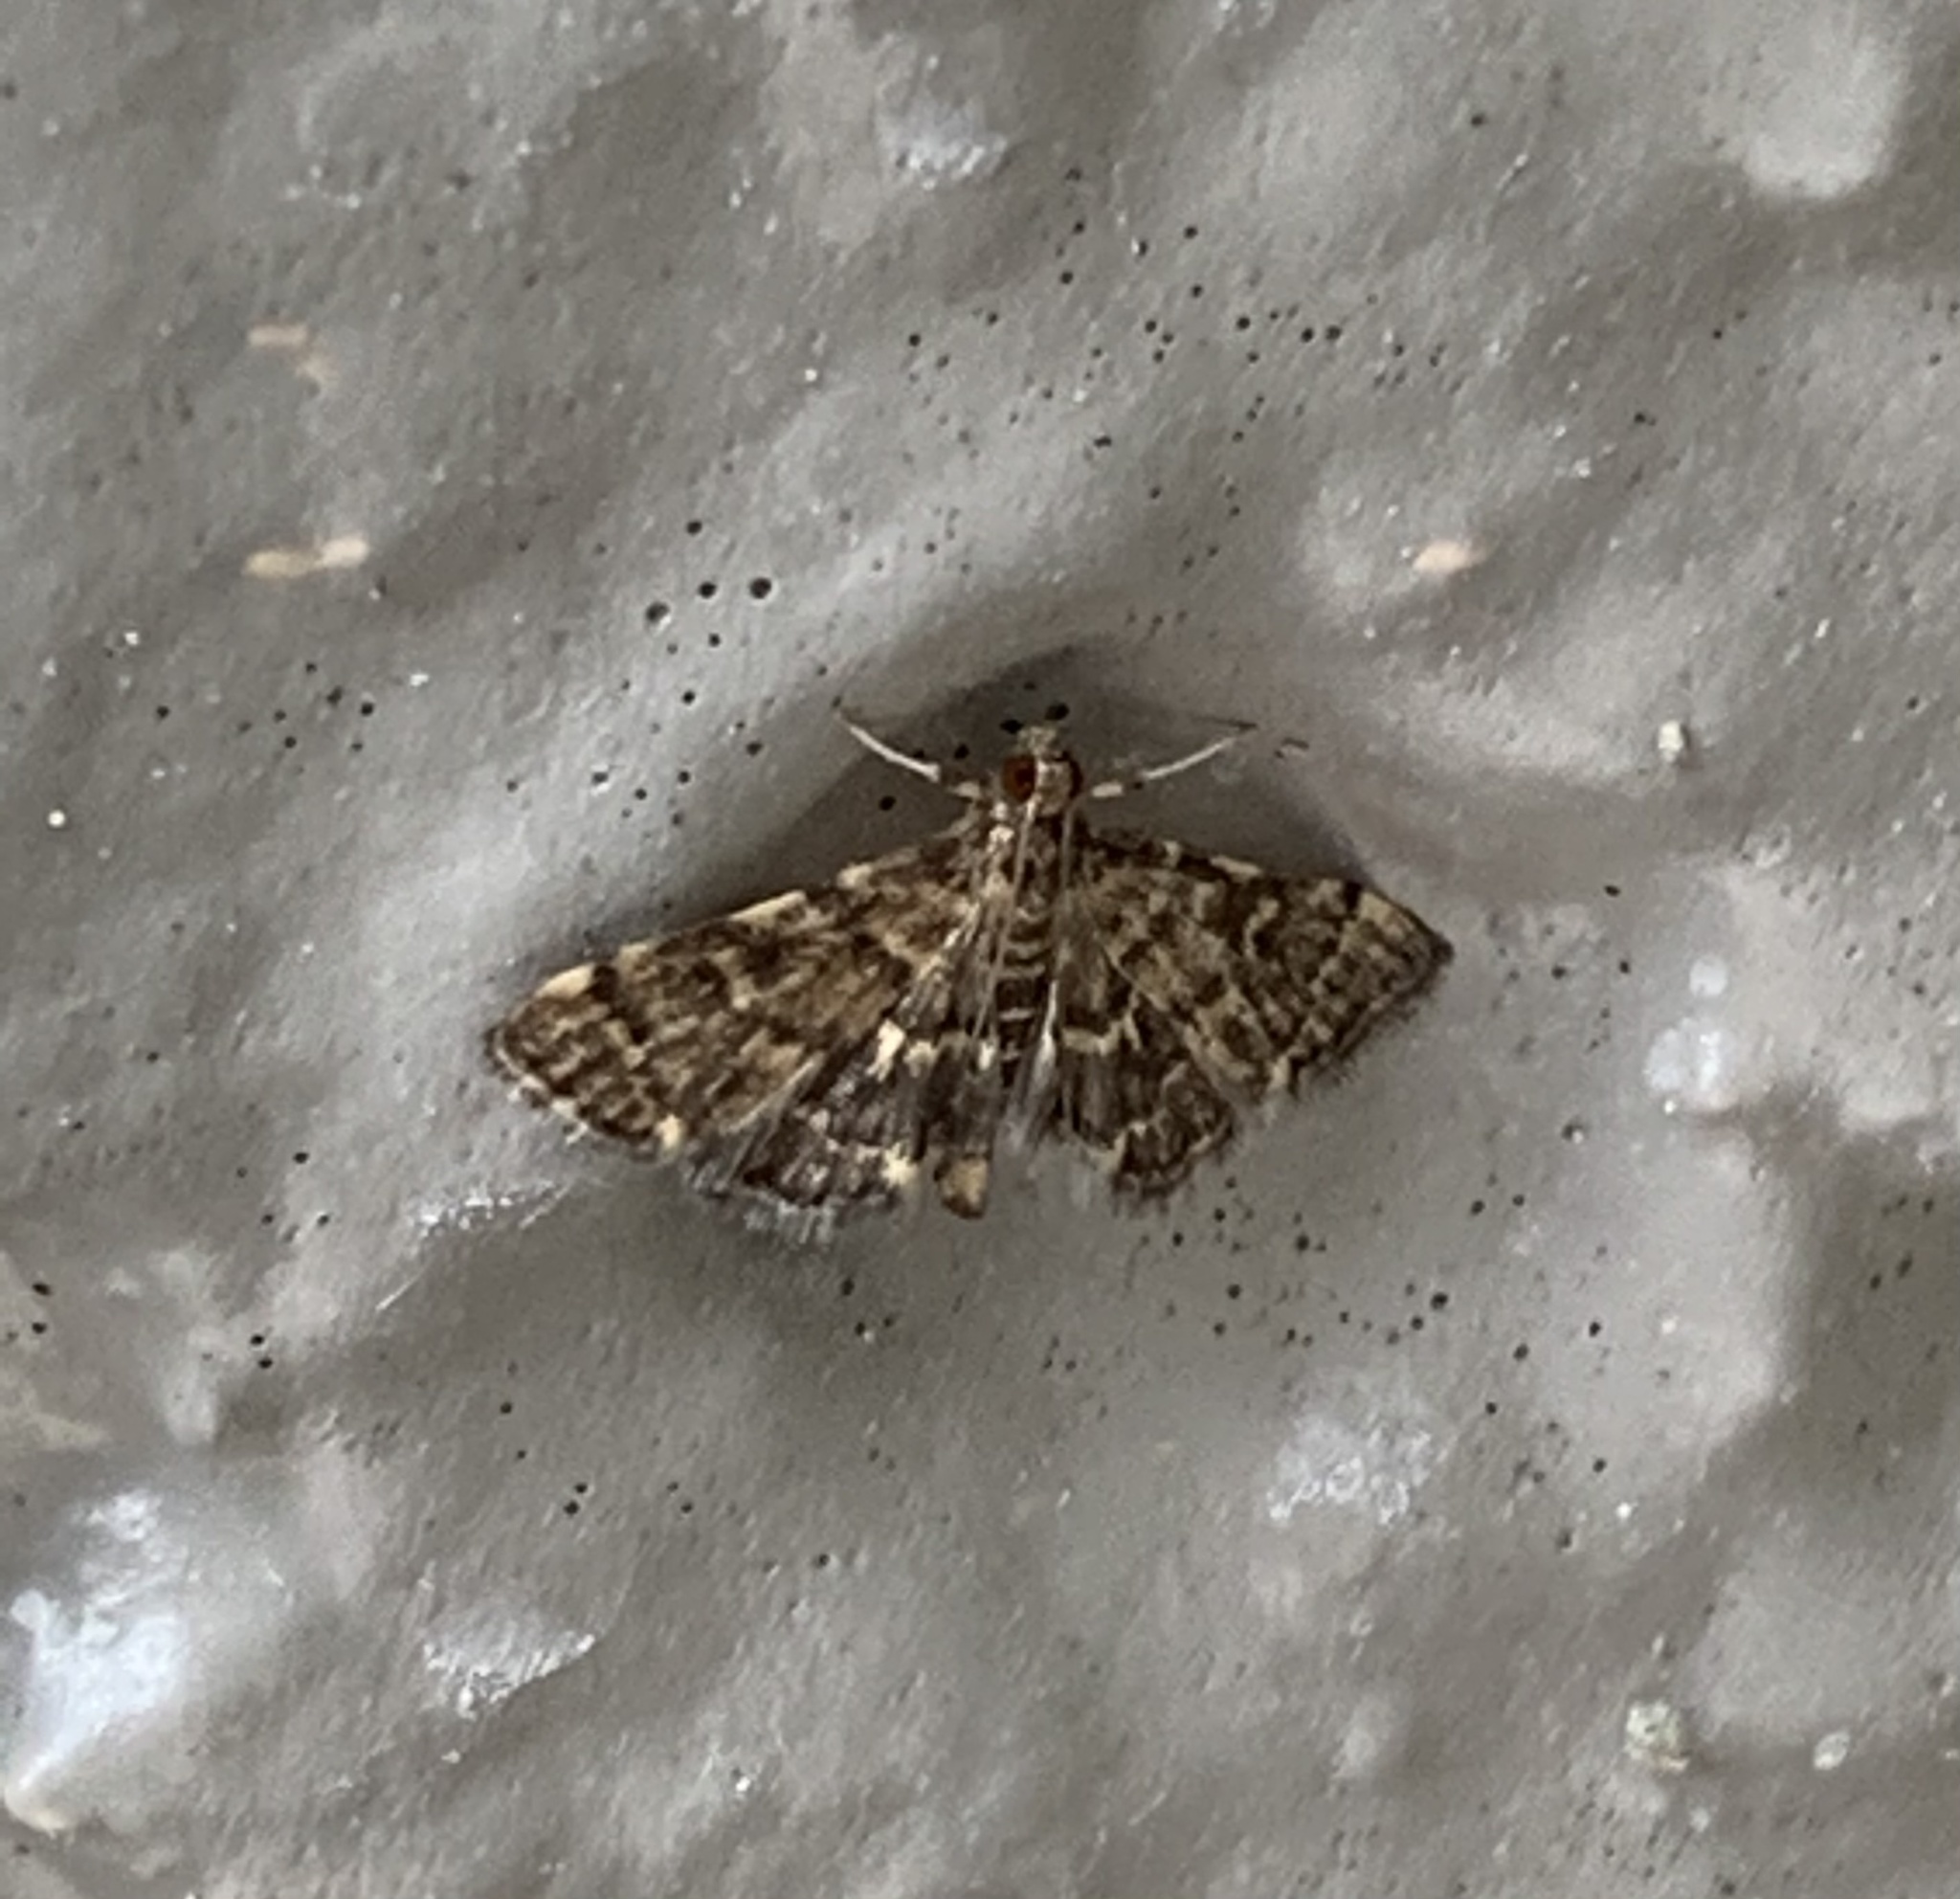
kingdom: Animalia
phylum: Arthropoda
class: Insecta
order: Lepidoptera
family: Crambidae
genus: Anageshna
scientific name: Anageshna primordialis
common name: Yellow-spotted webworm moth
